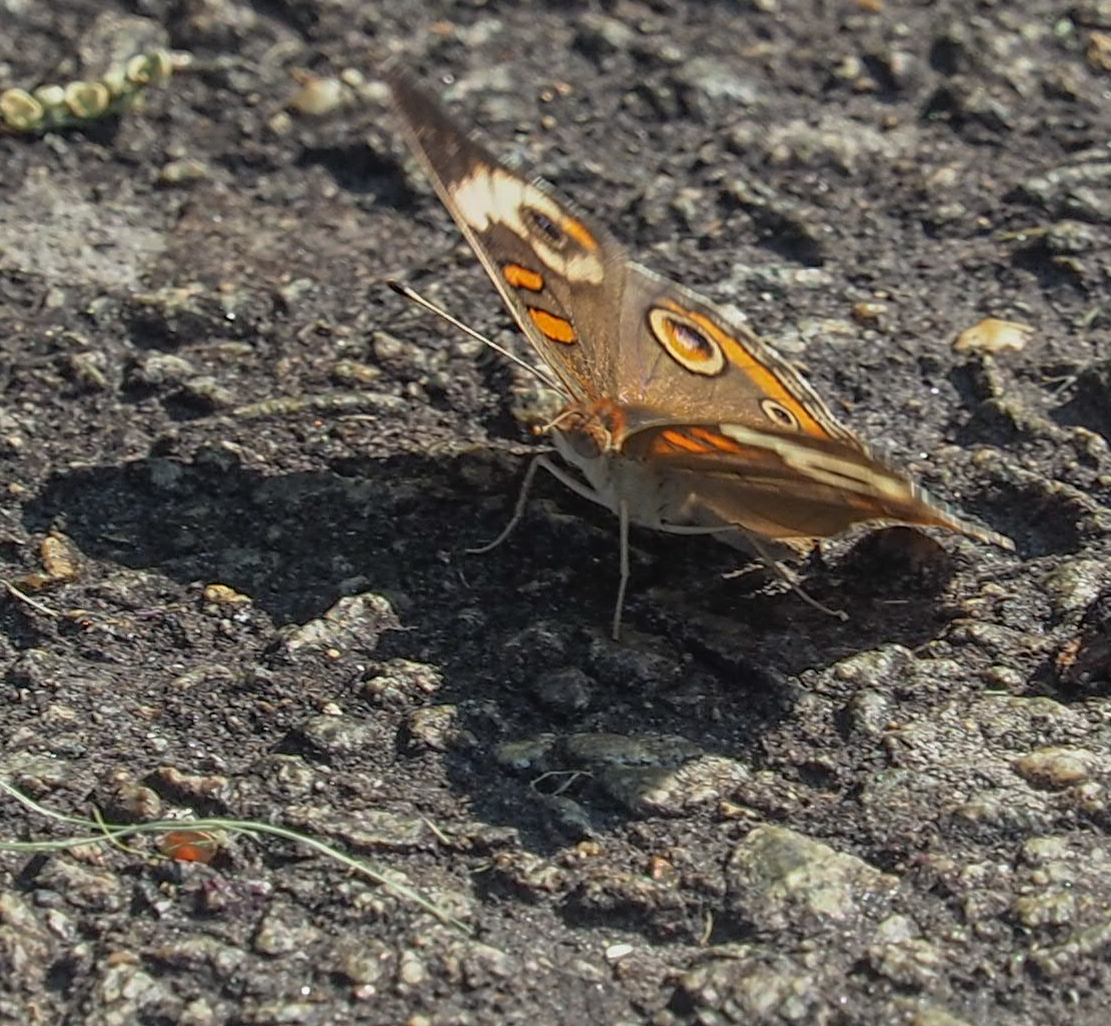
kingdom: Animalia
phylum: Arthropoda
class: Insecta
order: Lepidoptera
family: Nymphalidae
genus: Junonia
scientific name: Junonia coenia
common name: Common buckeye
